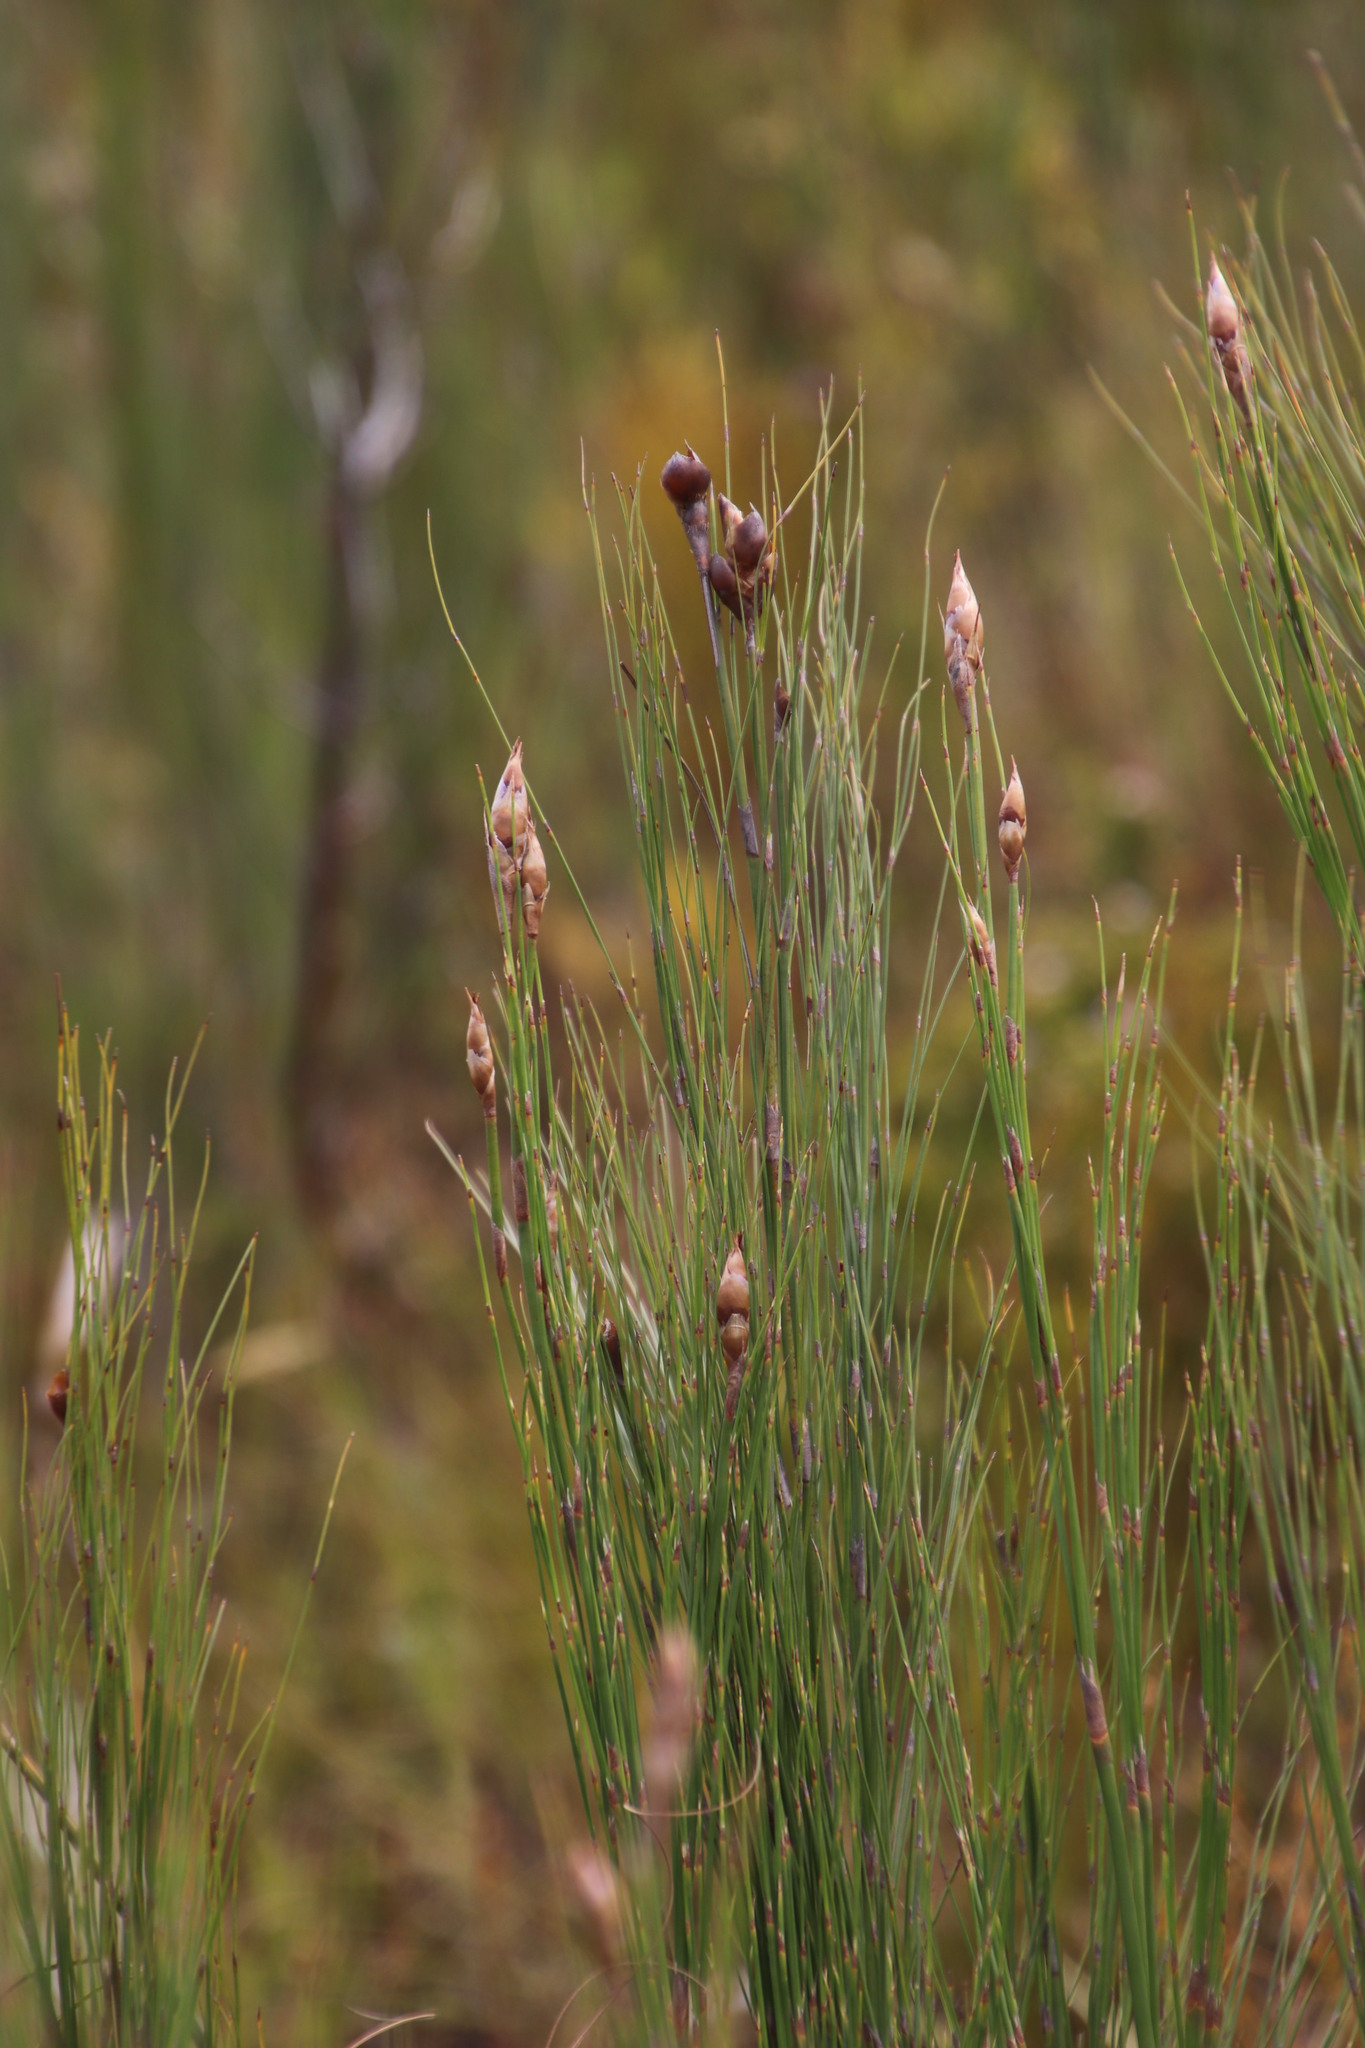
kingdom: Plantae
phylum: Tracheophyta
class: Liliopsida
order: Poales
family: Restionaceae
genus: Cannomois
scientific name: Cannomois virgata
